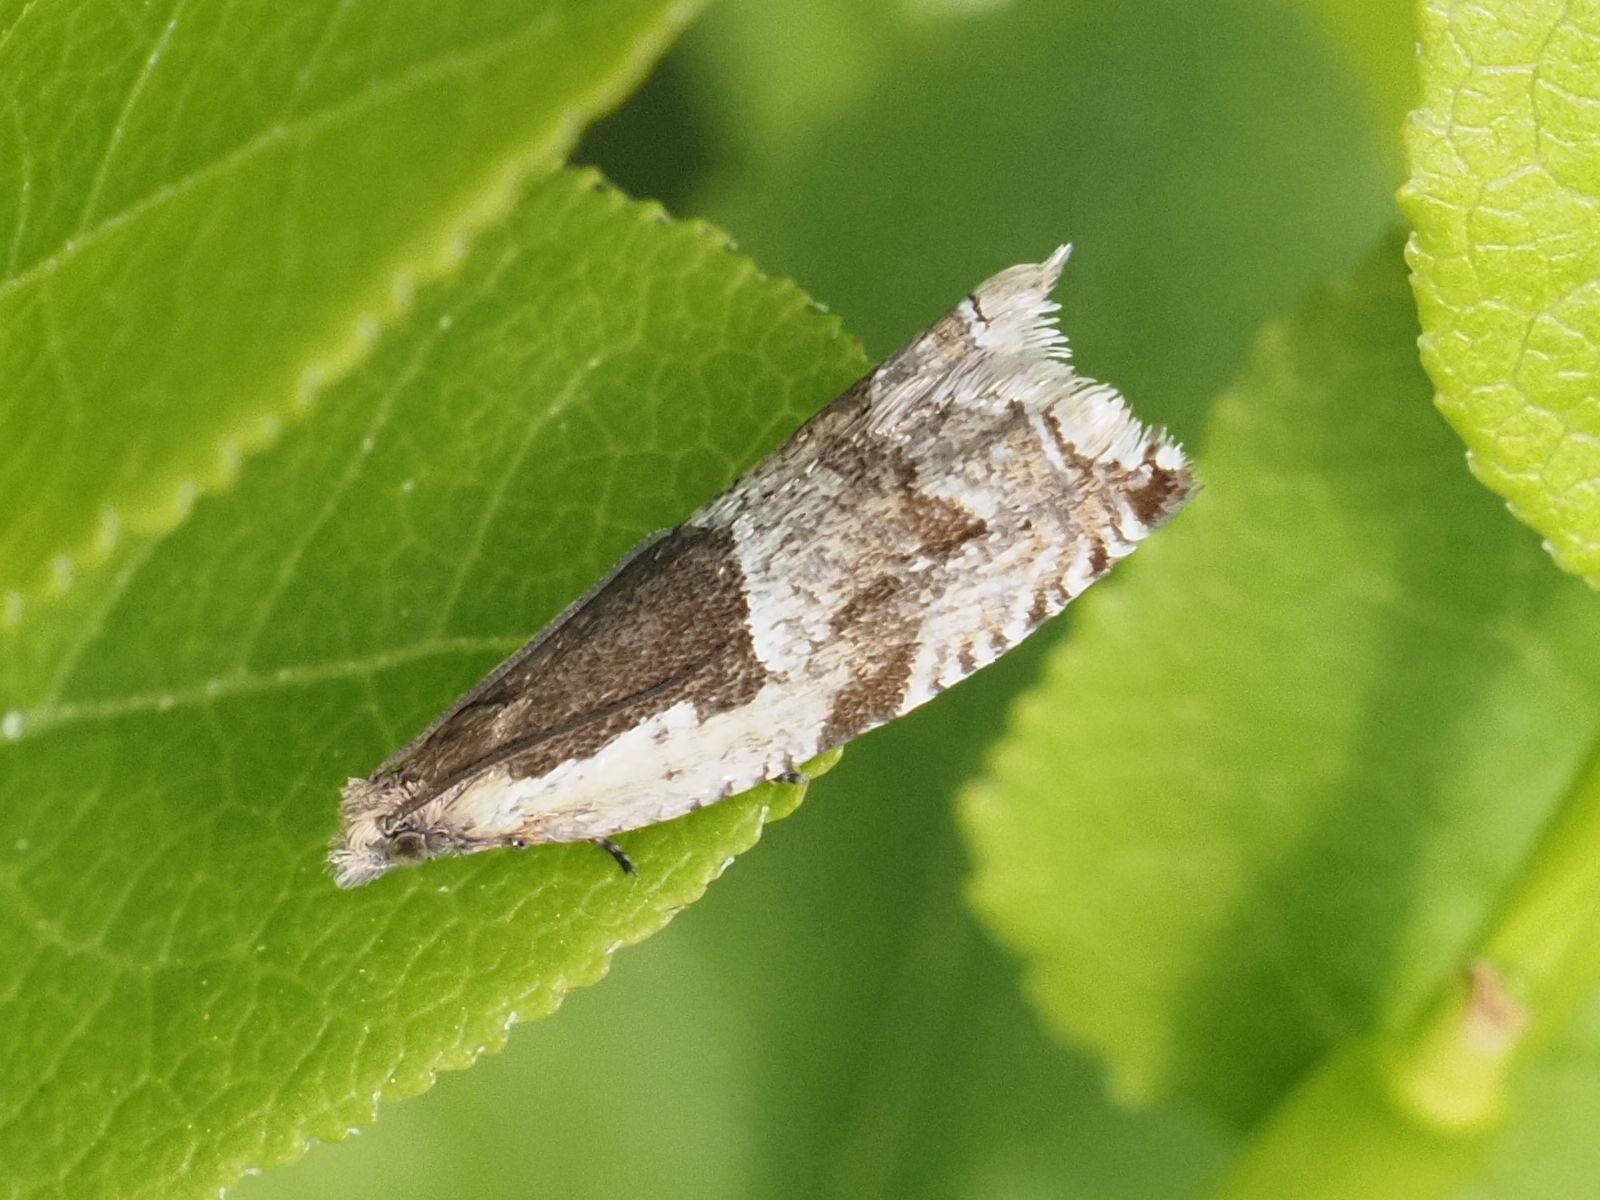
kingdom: Animalia
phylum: Arthropoda
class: Insecta
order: Lepidoptera
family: Tortricidae
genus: Ancylis
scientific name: Ancylis myrtillana
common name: Bilberry roller
